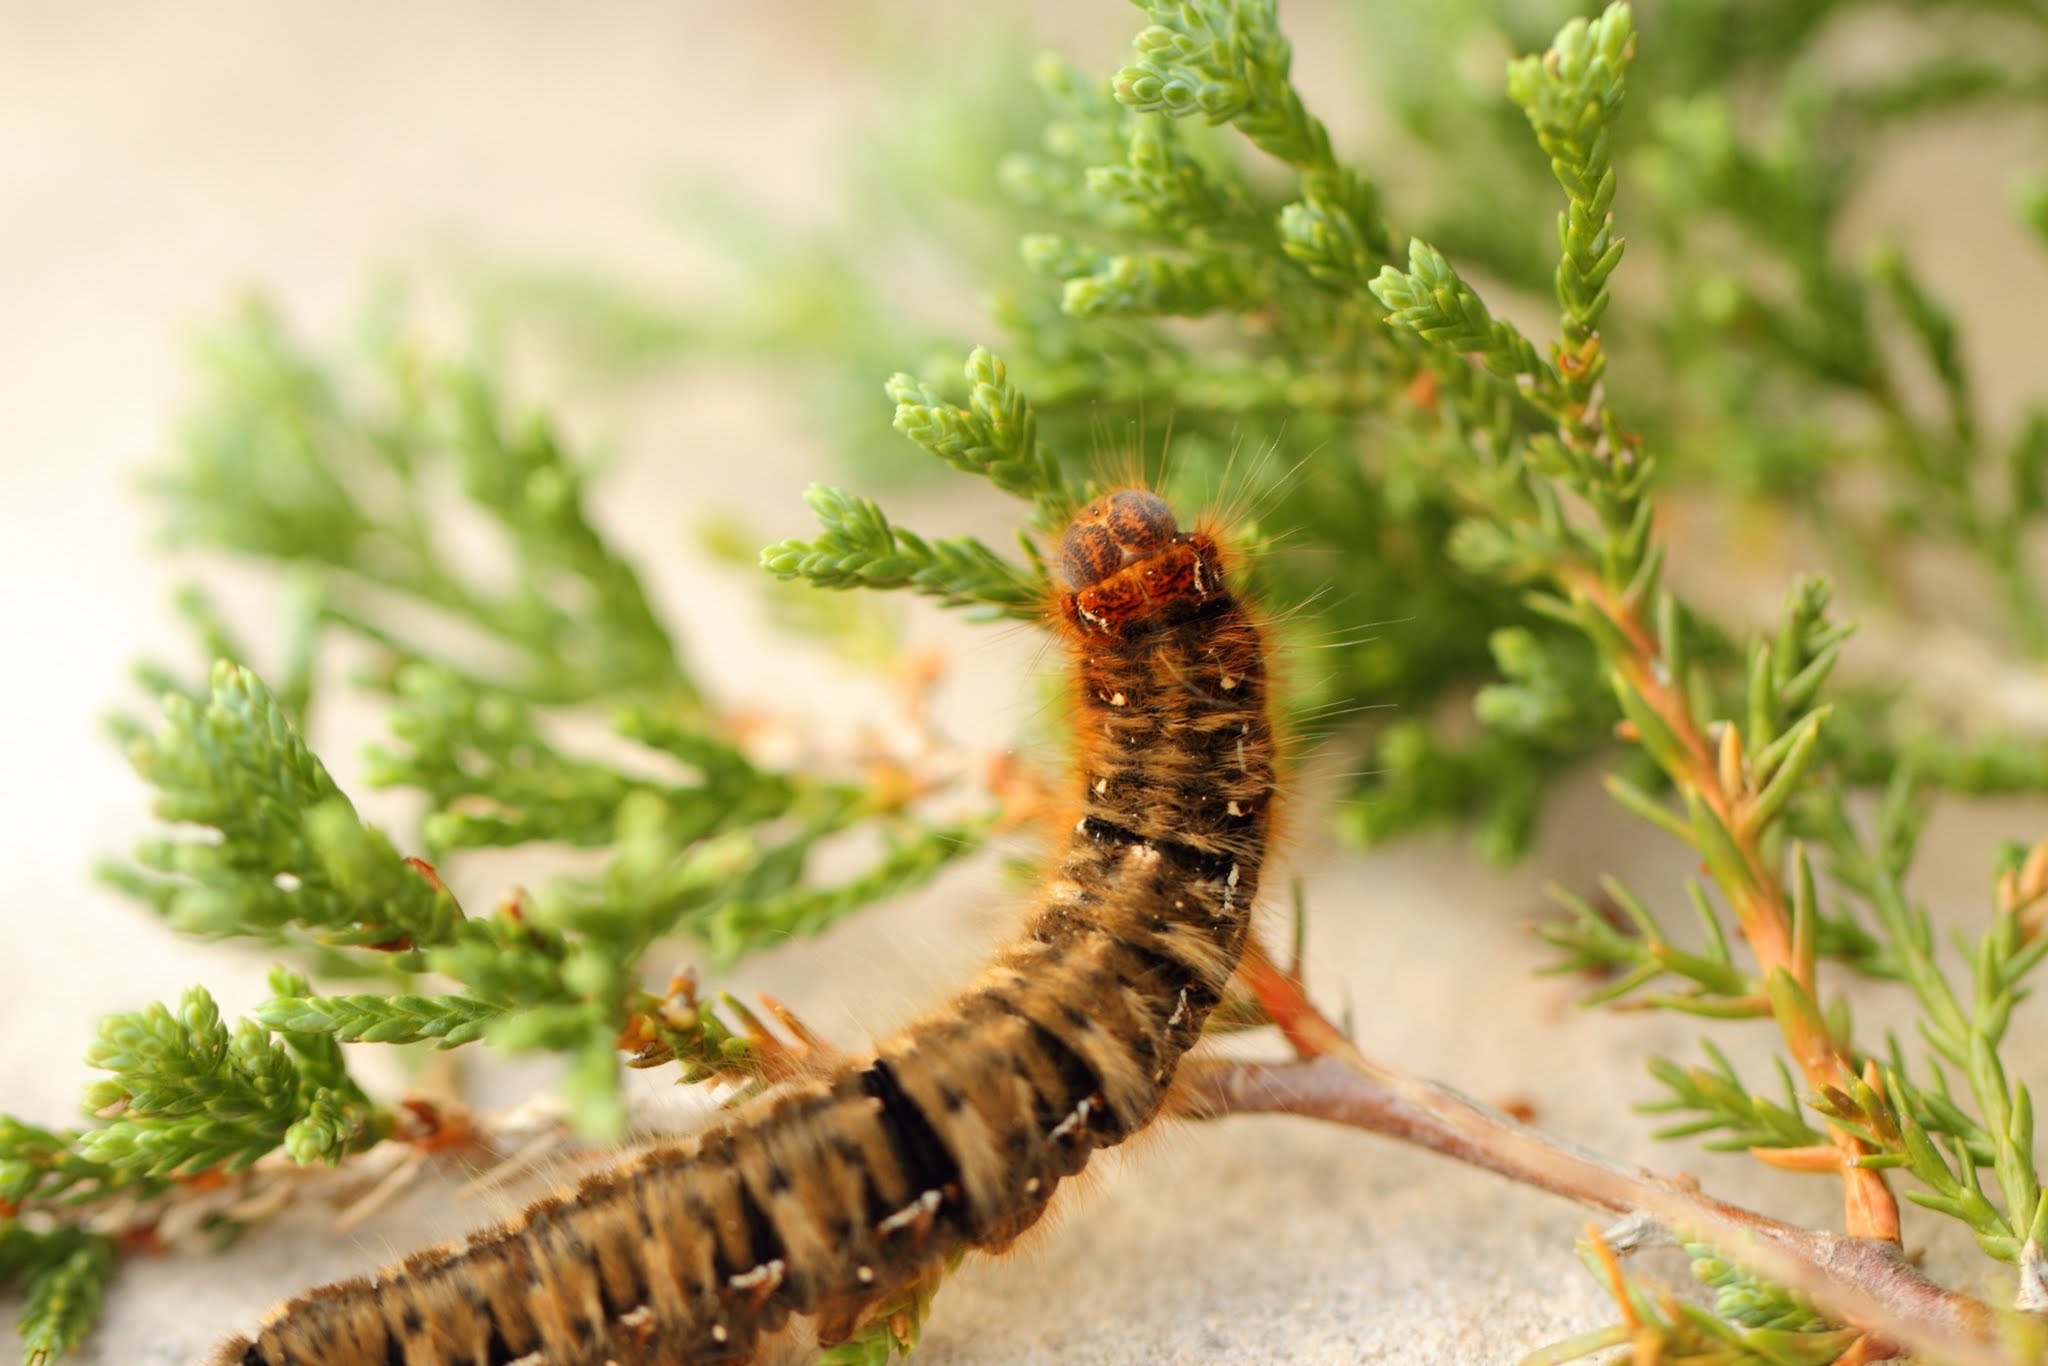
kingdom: Animalia
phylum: Arthropoda
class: Insecta
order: Lepidoptera
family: Lasiocampidae
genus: Lasiocampa
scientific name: Lasiocampa quercus
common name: Oak eggar
